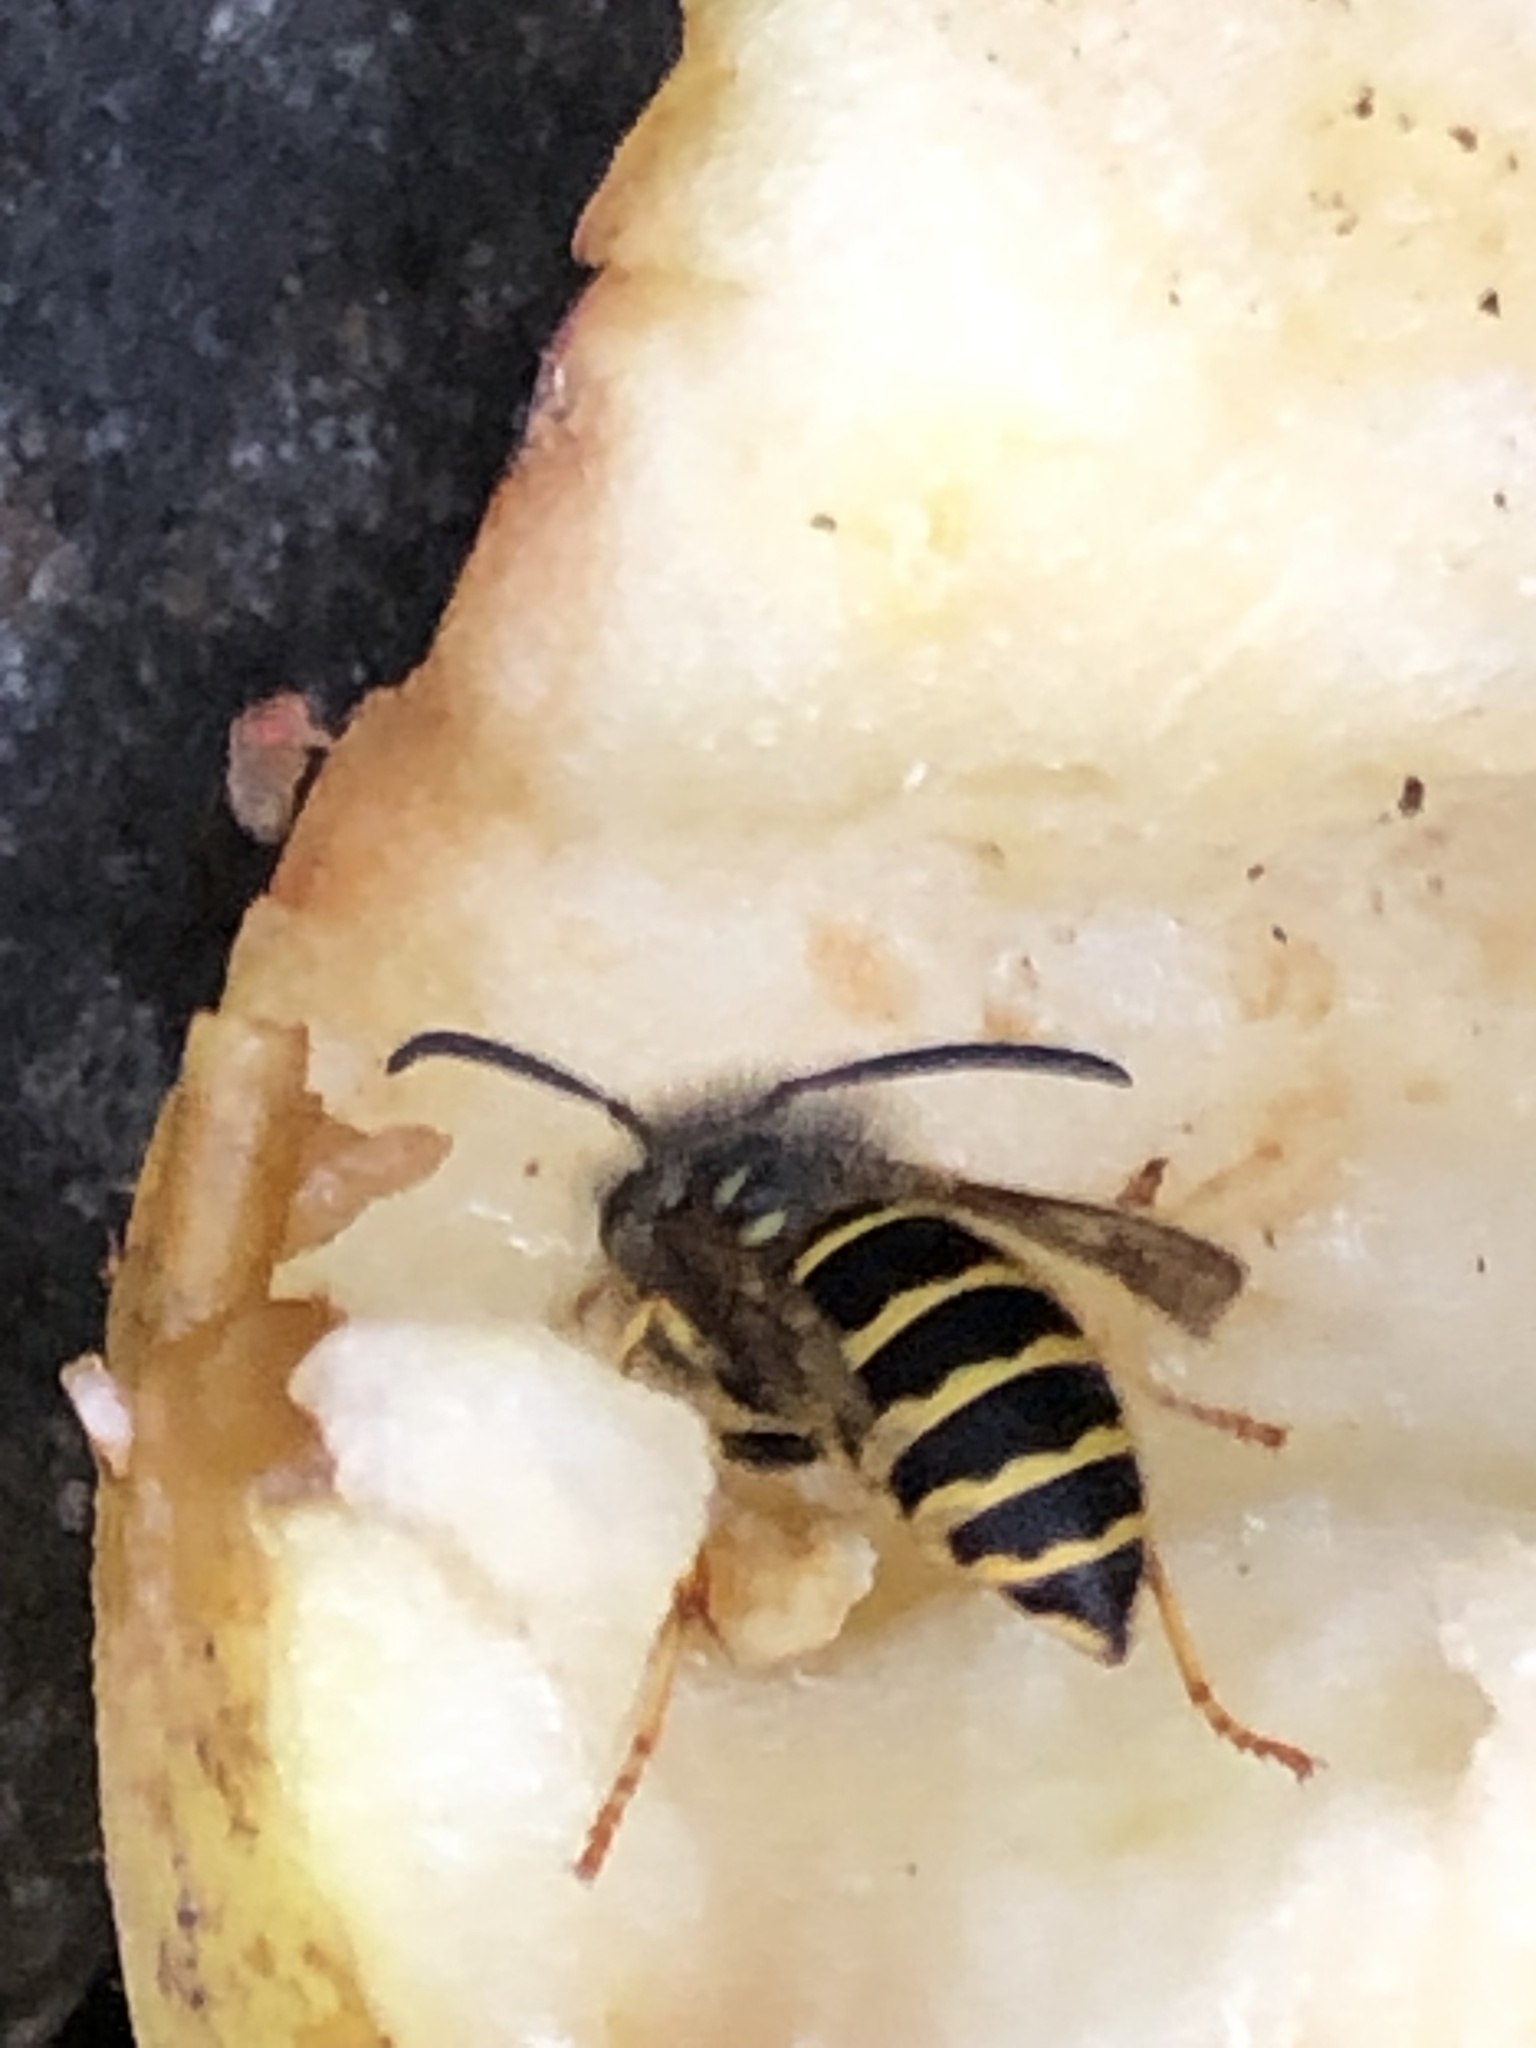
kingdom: Animalia
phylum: Arthropoda
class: Insecta
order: Hymenoptera
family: Vespidae
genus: Vespula
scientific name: Vespula alascensis
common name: Alaska yellowjacket
